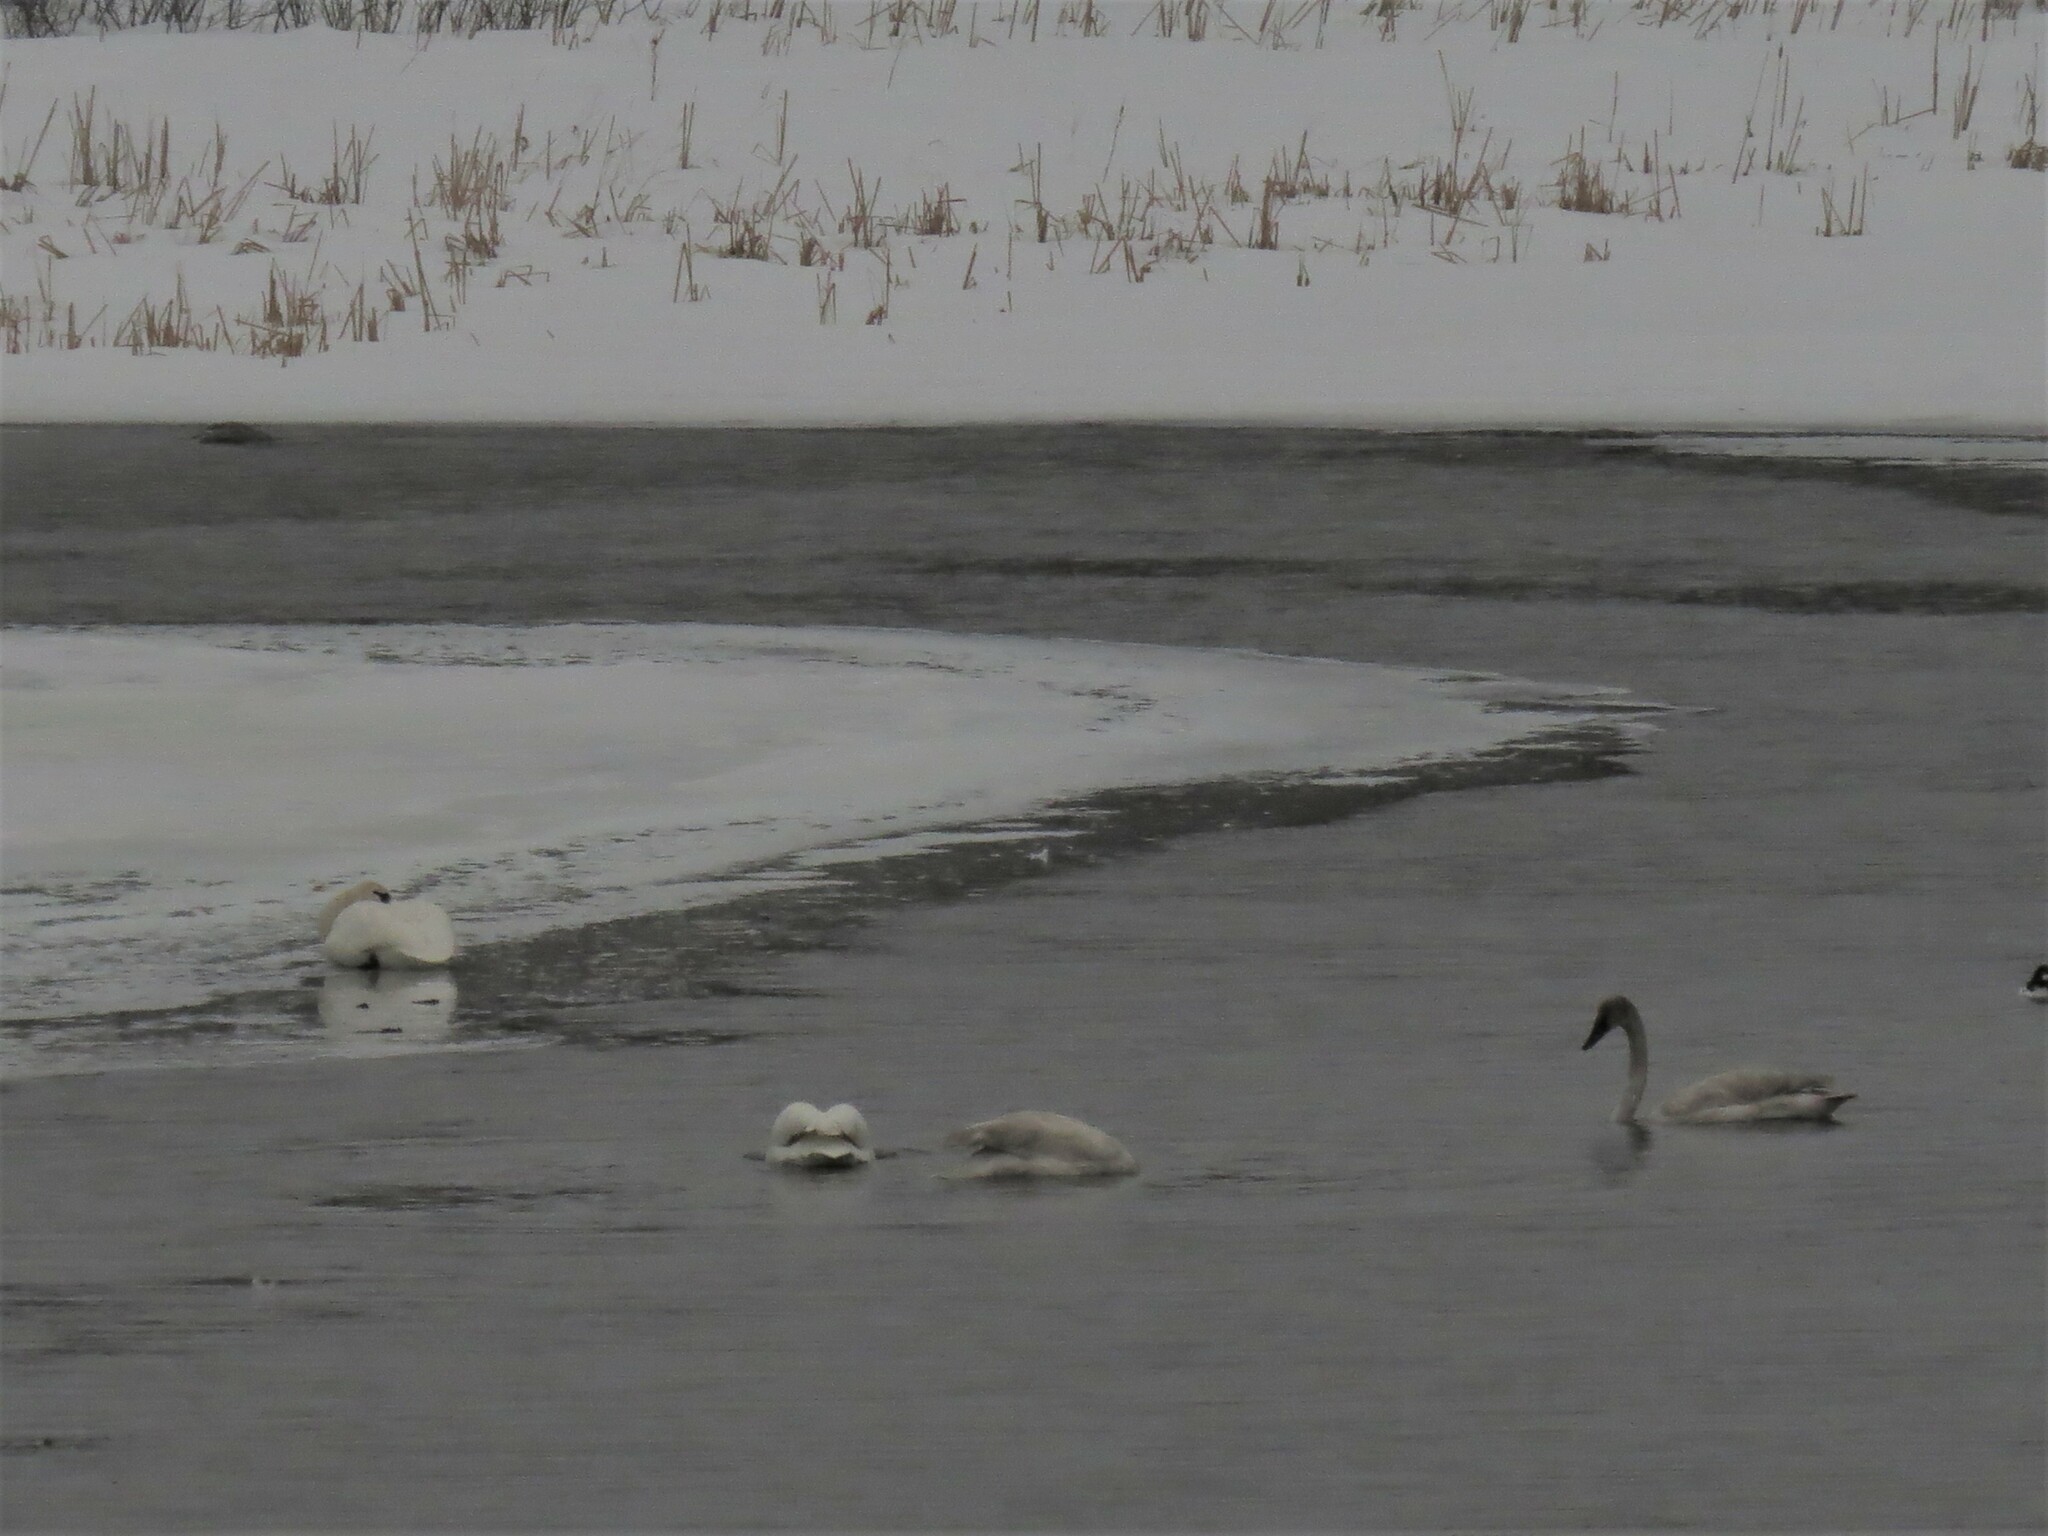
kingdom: Animalia
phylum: Chordata
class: Aves
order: Anseriformes
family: Anatidae
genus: Cygnus
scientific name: Cygnus buccinator
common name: Trumpeter swan
